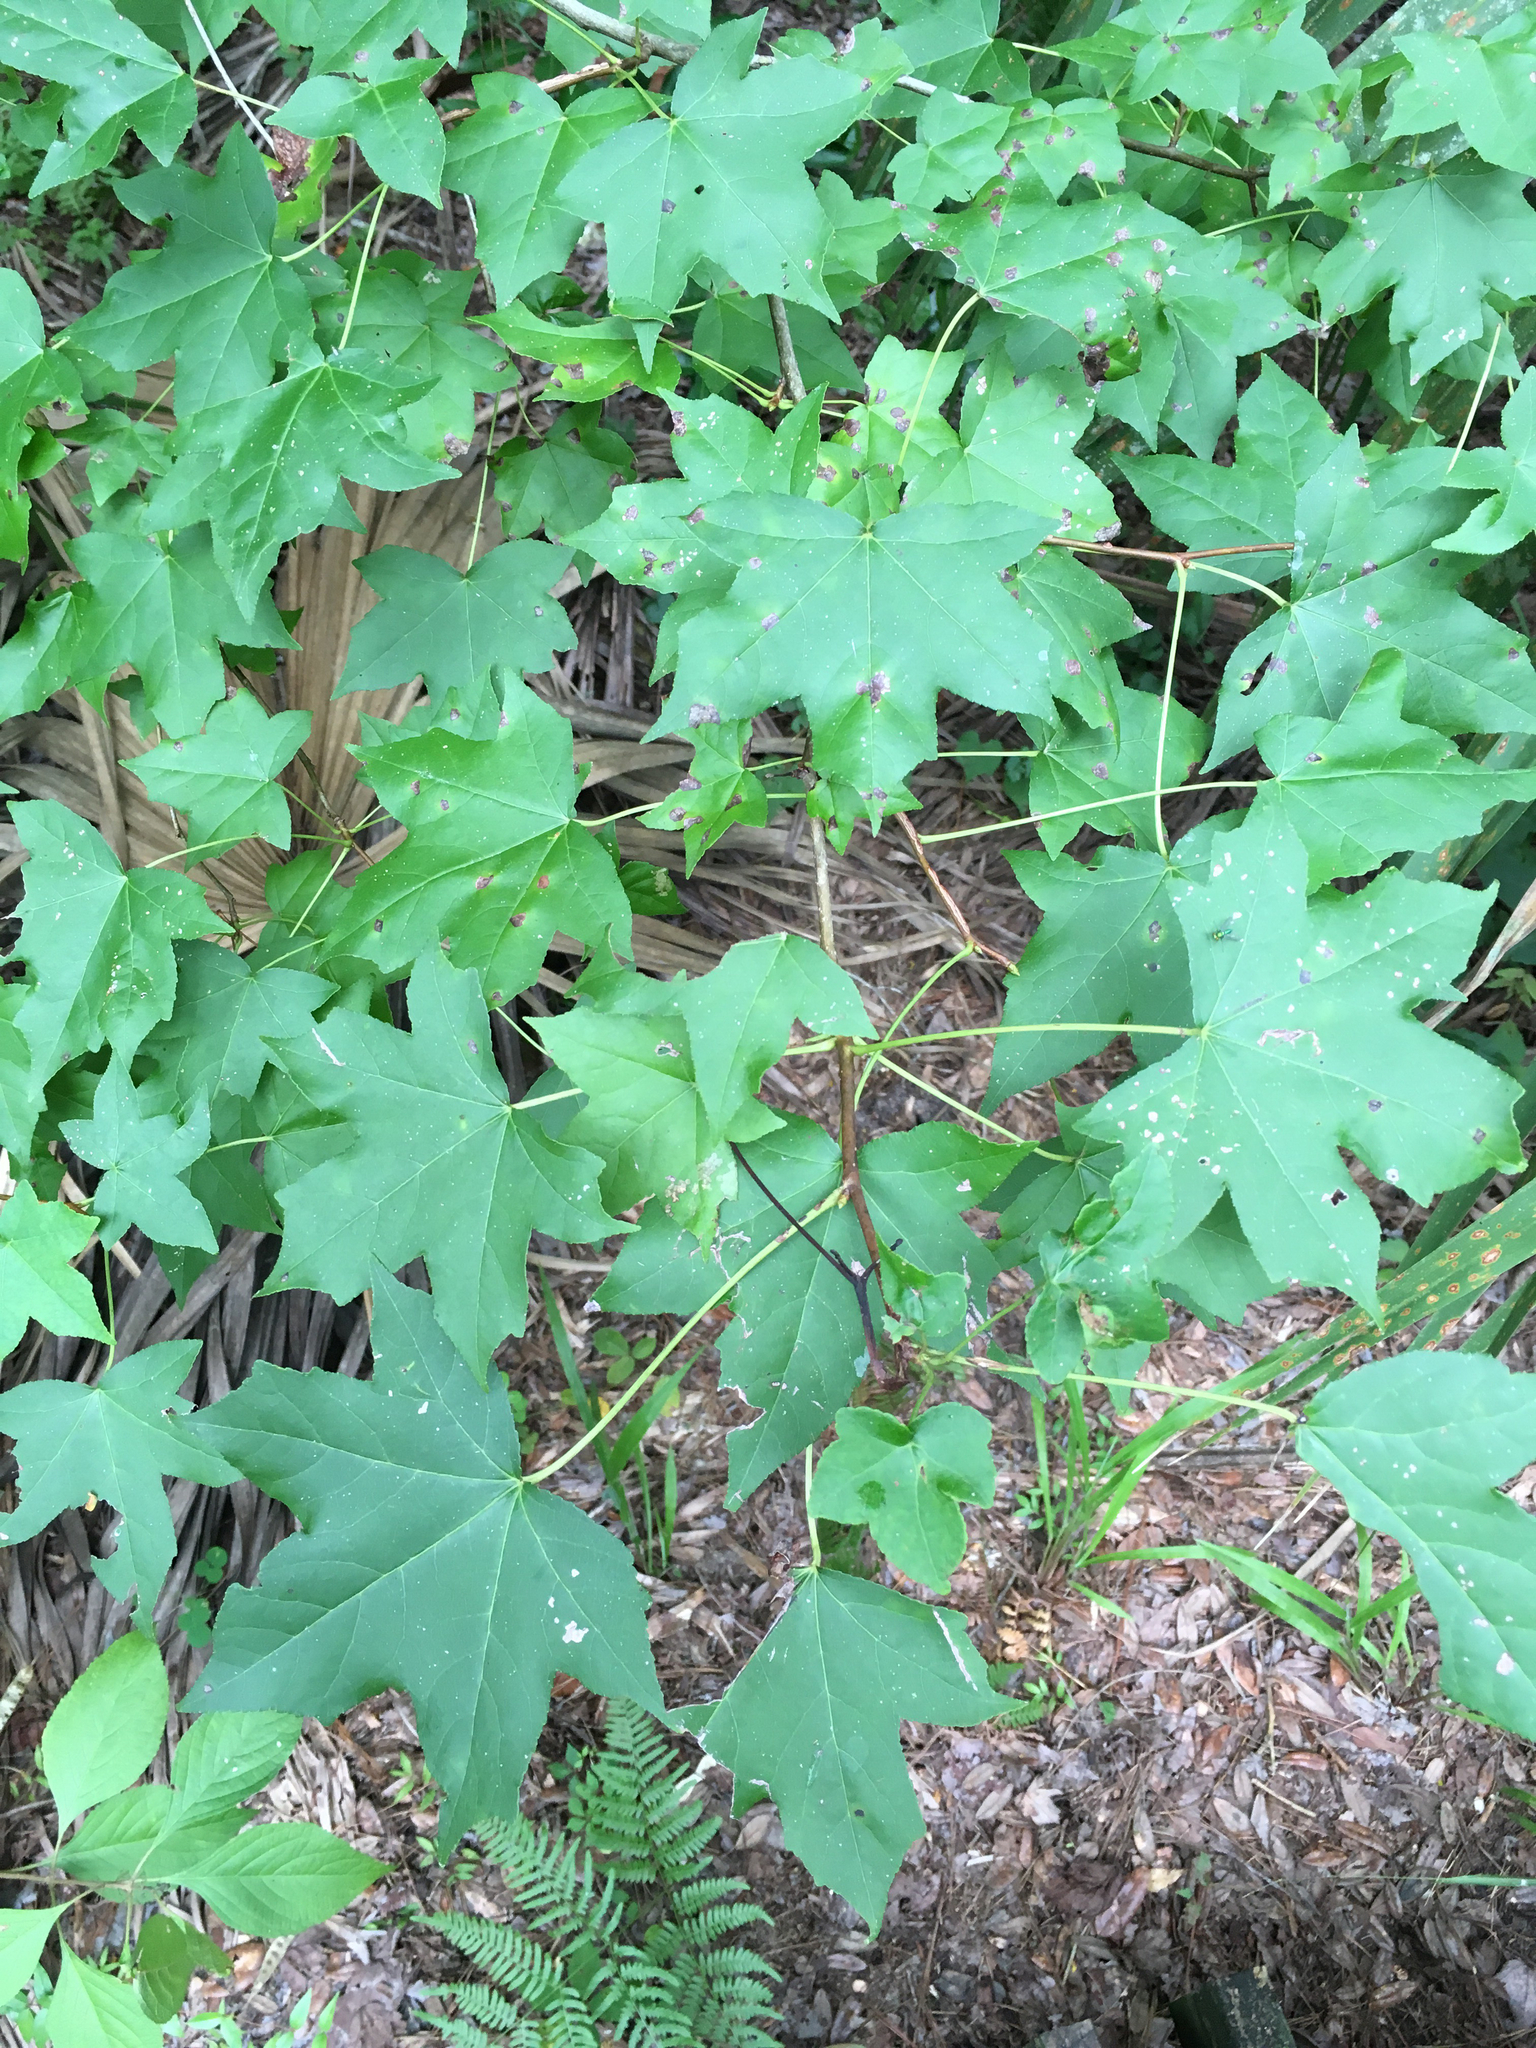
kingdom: Plantae
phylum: Tracheophyta
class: Magnoliopsida
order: Saxifragales
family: Altingiaceae
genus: Liquidambar
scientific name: Liquidambar styraciflua
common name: Sweet gum
